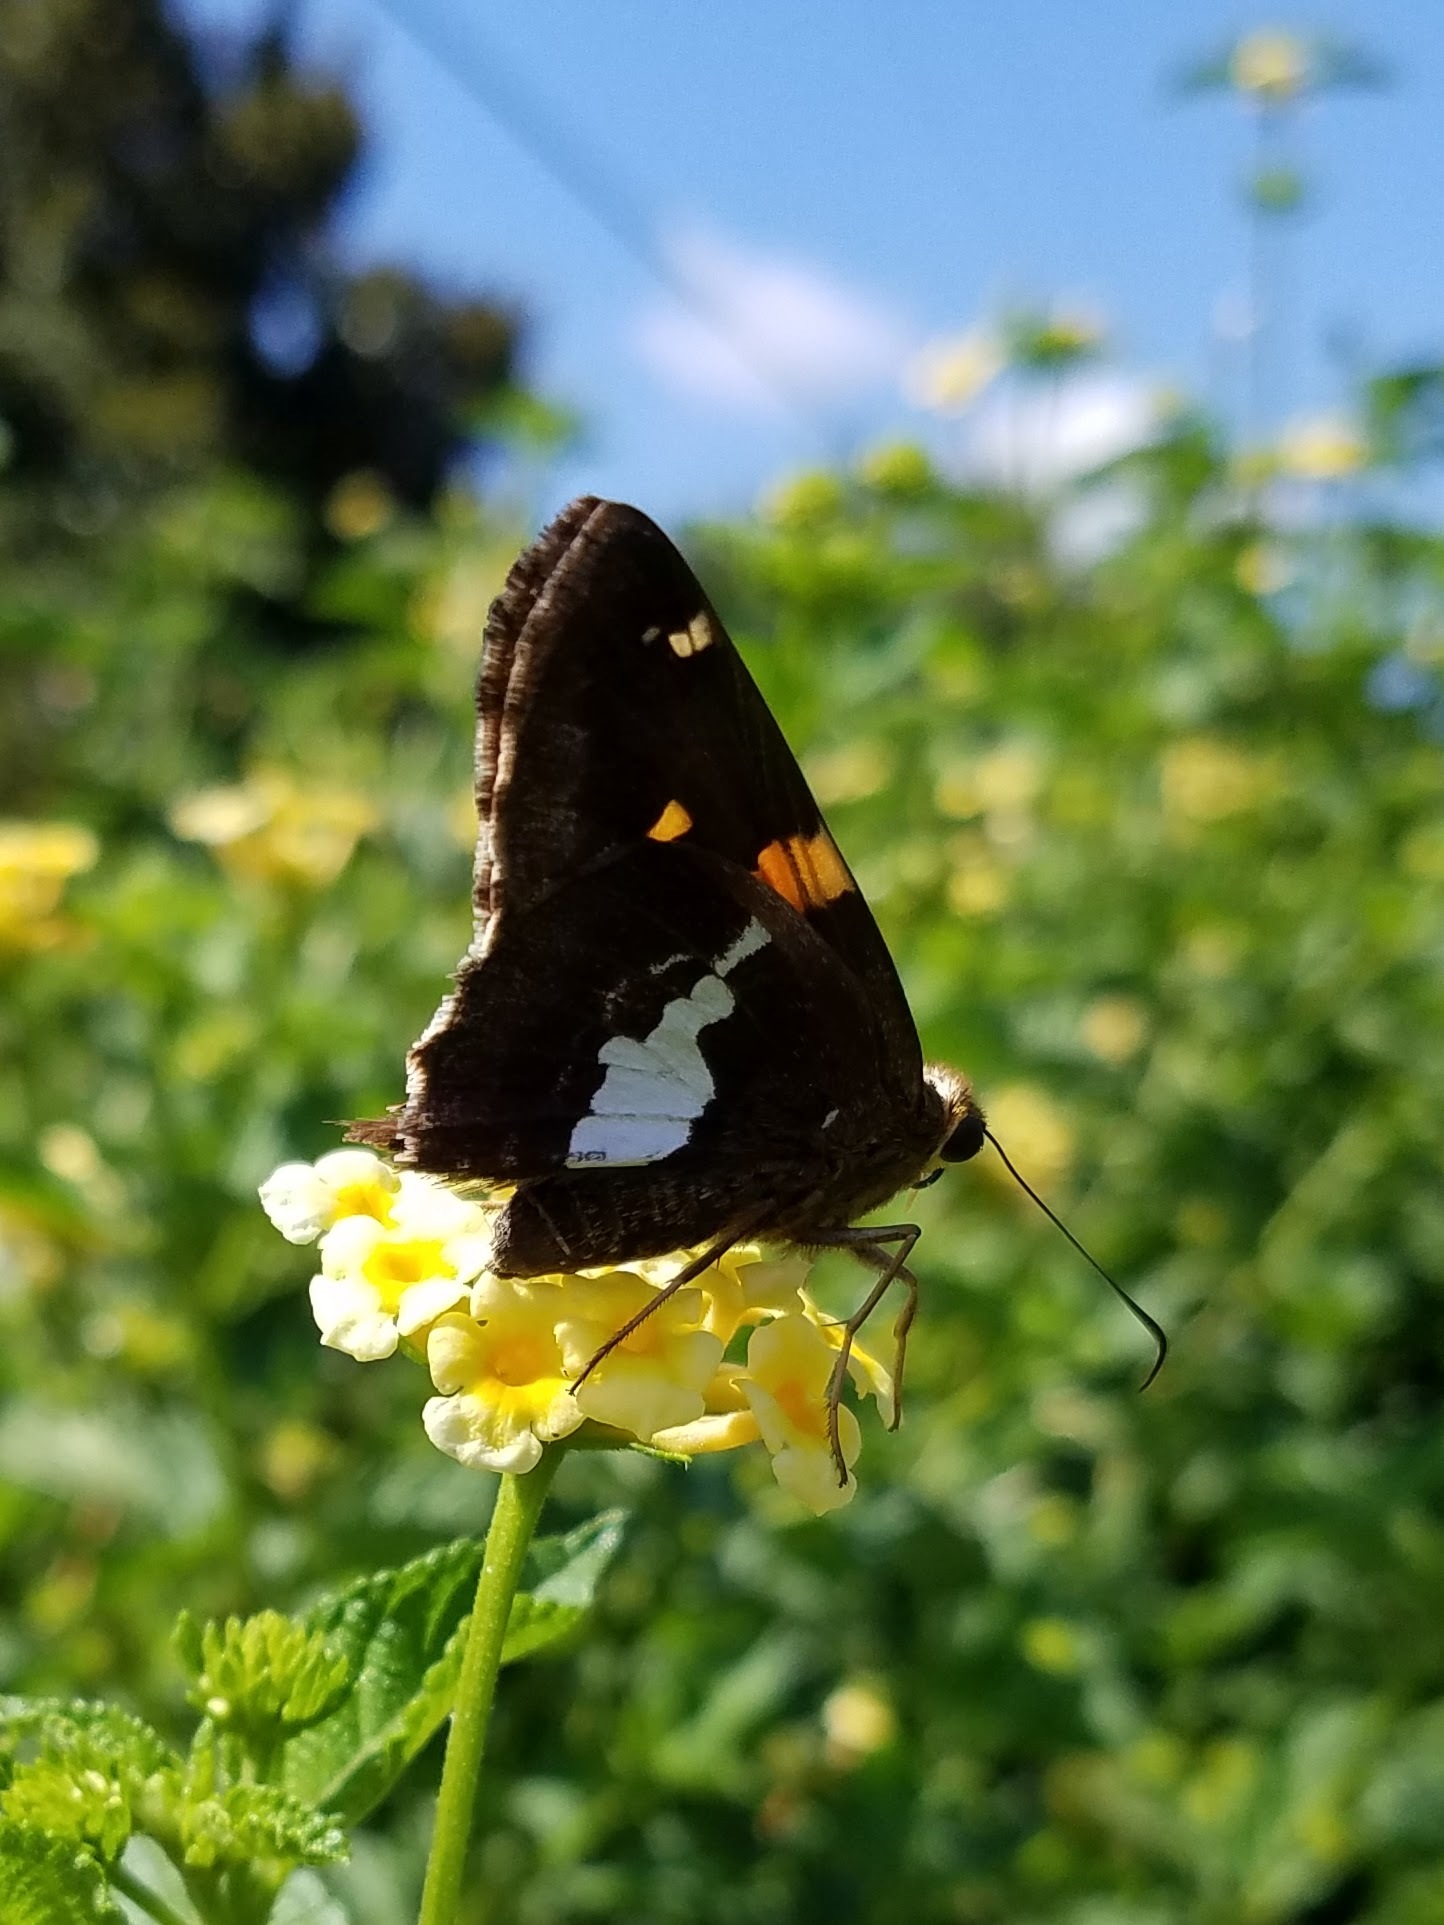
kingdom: Animalia
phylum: Arthropoda
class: Insecta
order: Lepidoptera
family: Hesperiidae
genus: Epargyreus
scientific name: Epargyreus clarus
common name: Silver-spotted skipper
